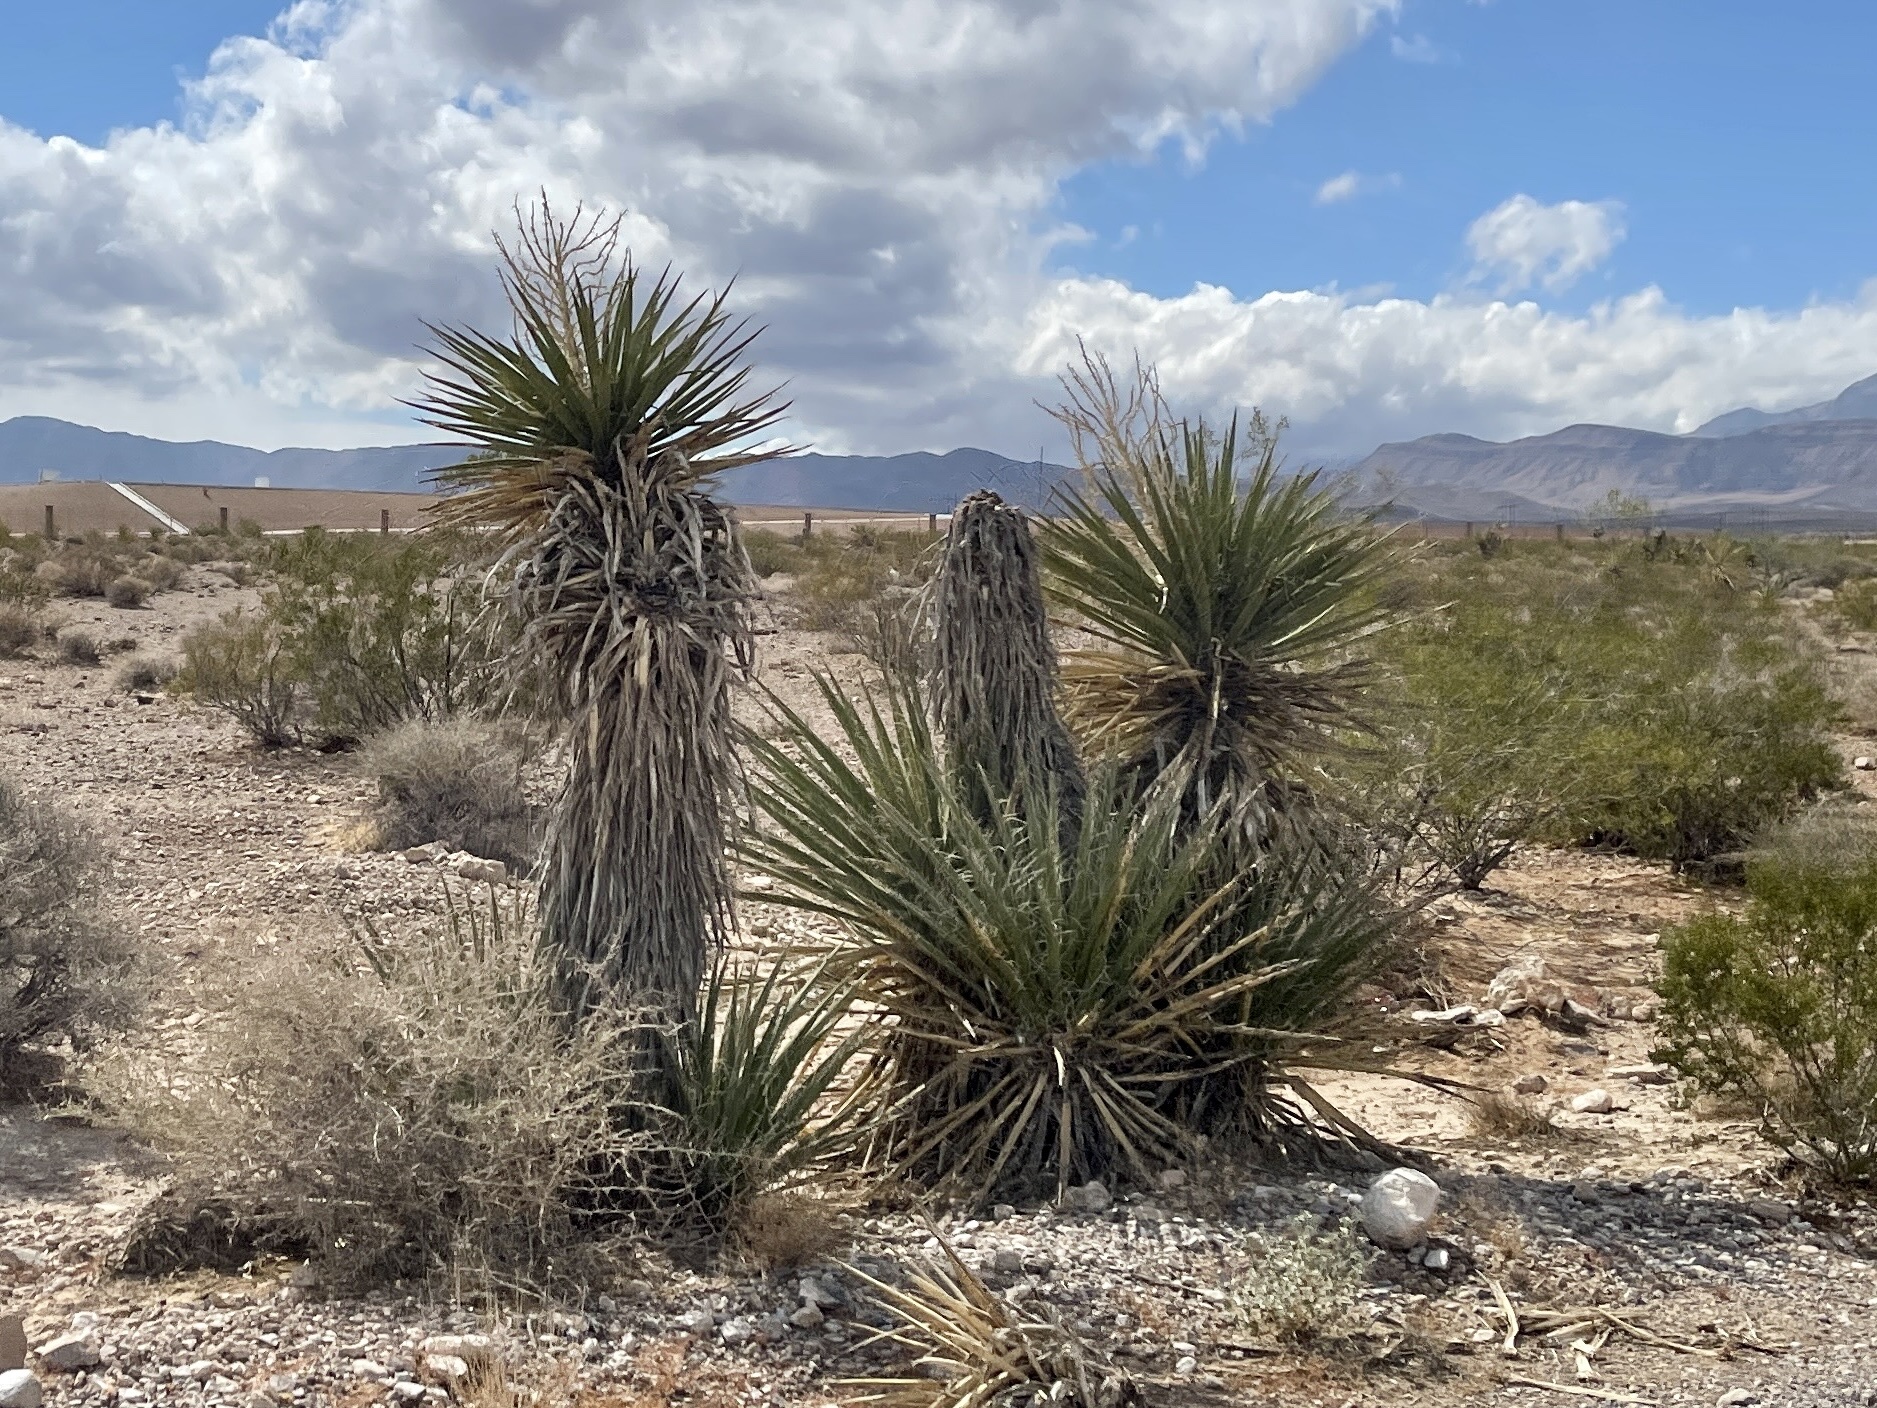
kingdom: Plantae
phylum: Tracheophyta
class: Liliopsida
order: Asparagales
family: Asparagaceae
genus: Yucca
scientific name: Yucca schidigera
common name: Mojave yucca
